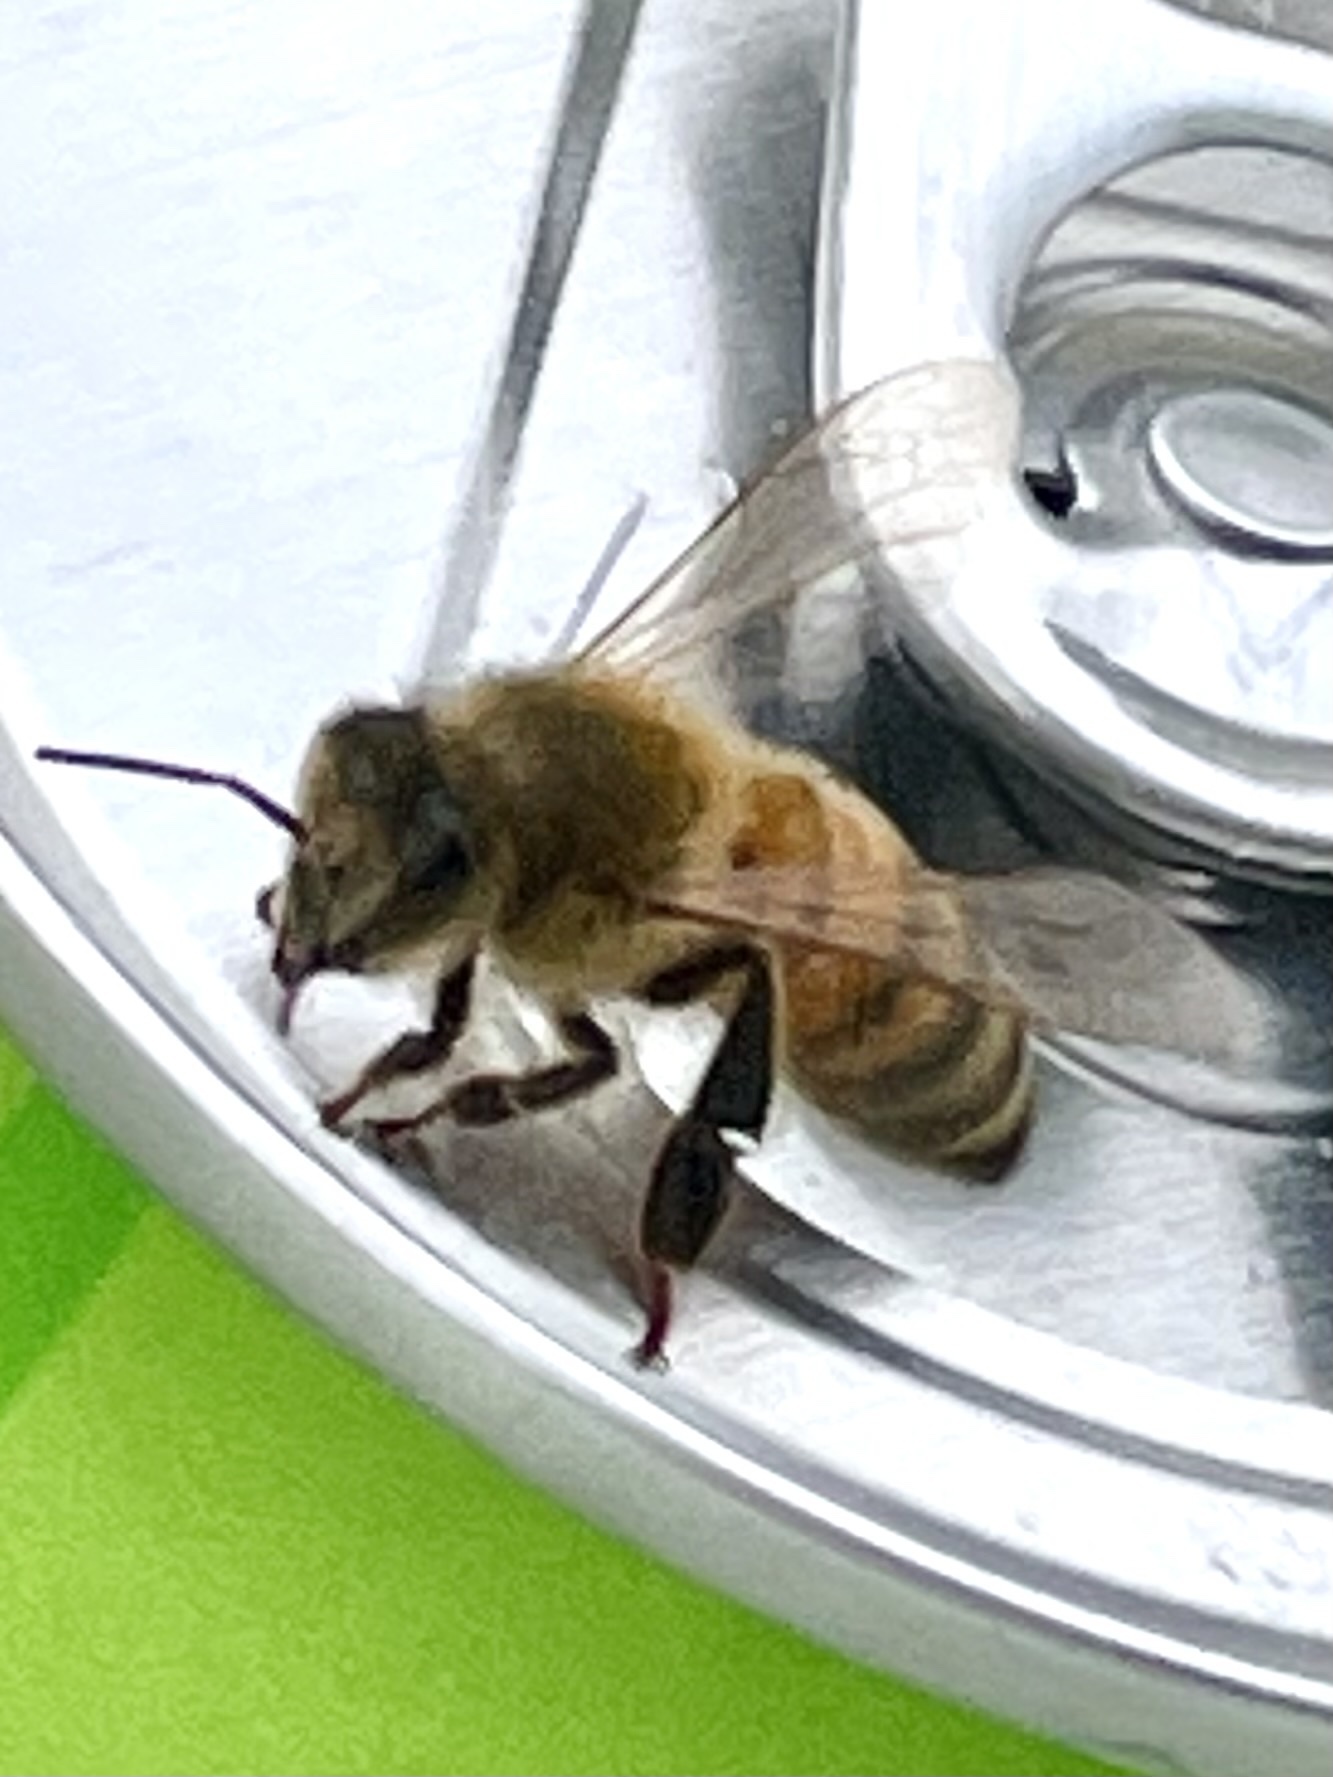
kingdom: Animalia
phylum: Arthropoda
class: Insecta
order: Hymenoptera
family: Apidae
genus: Apis
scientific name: Apis mellifera
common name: Honey bee
